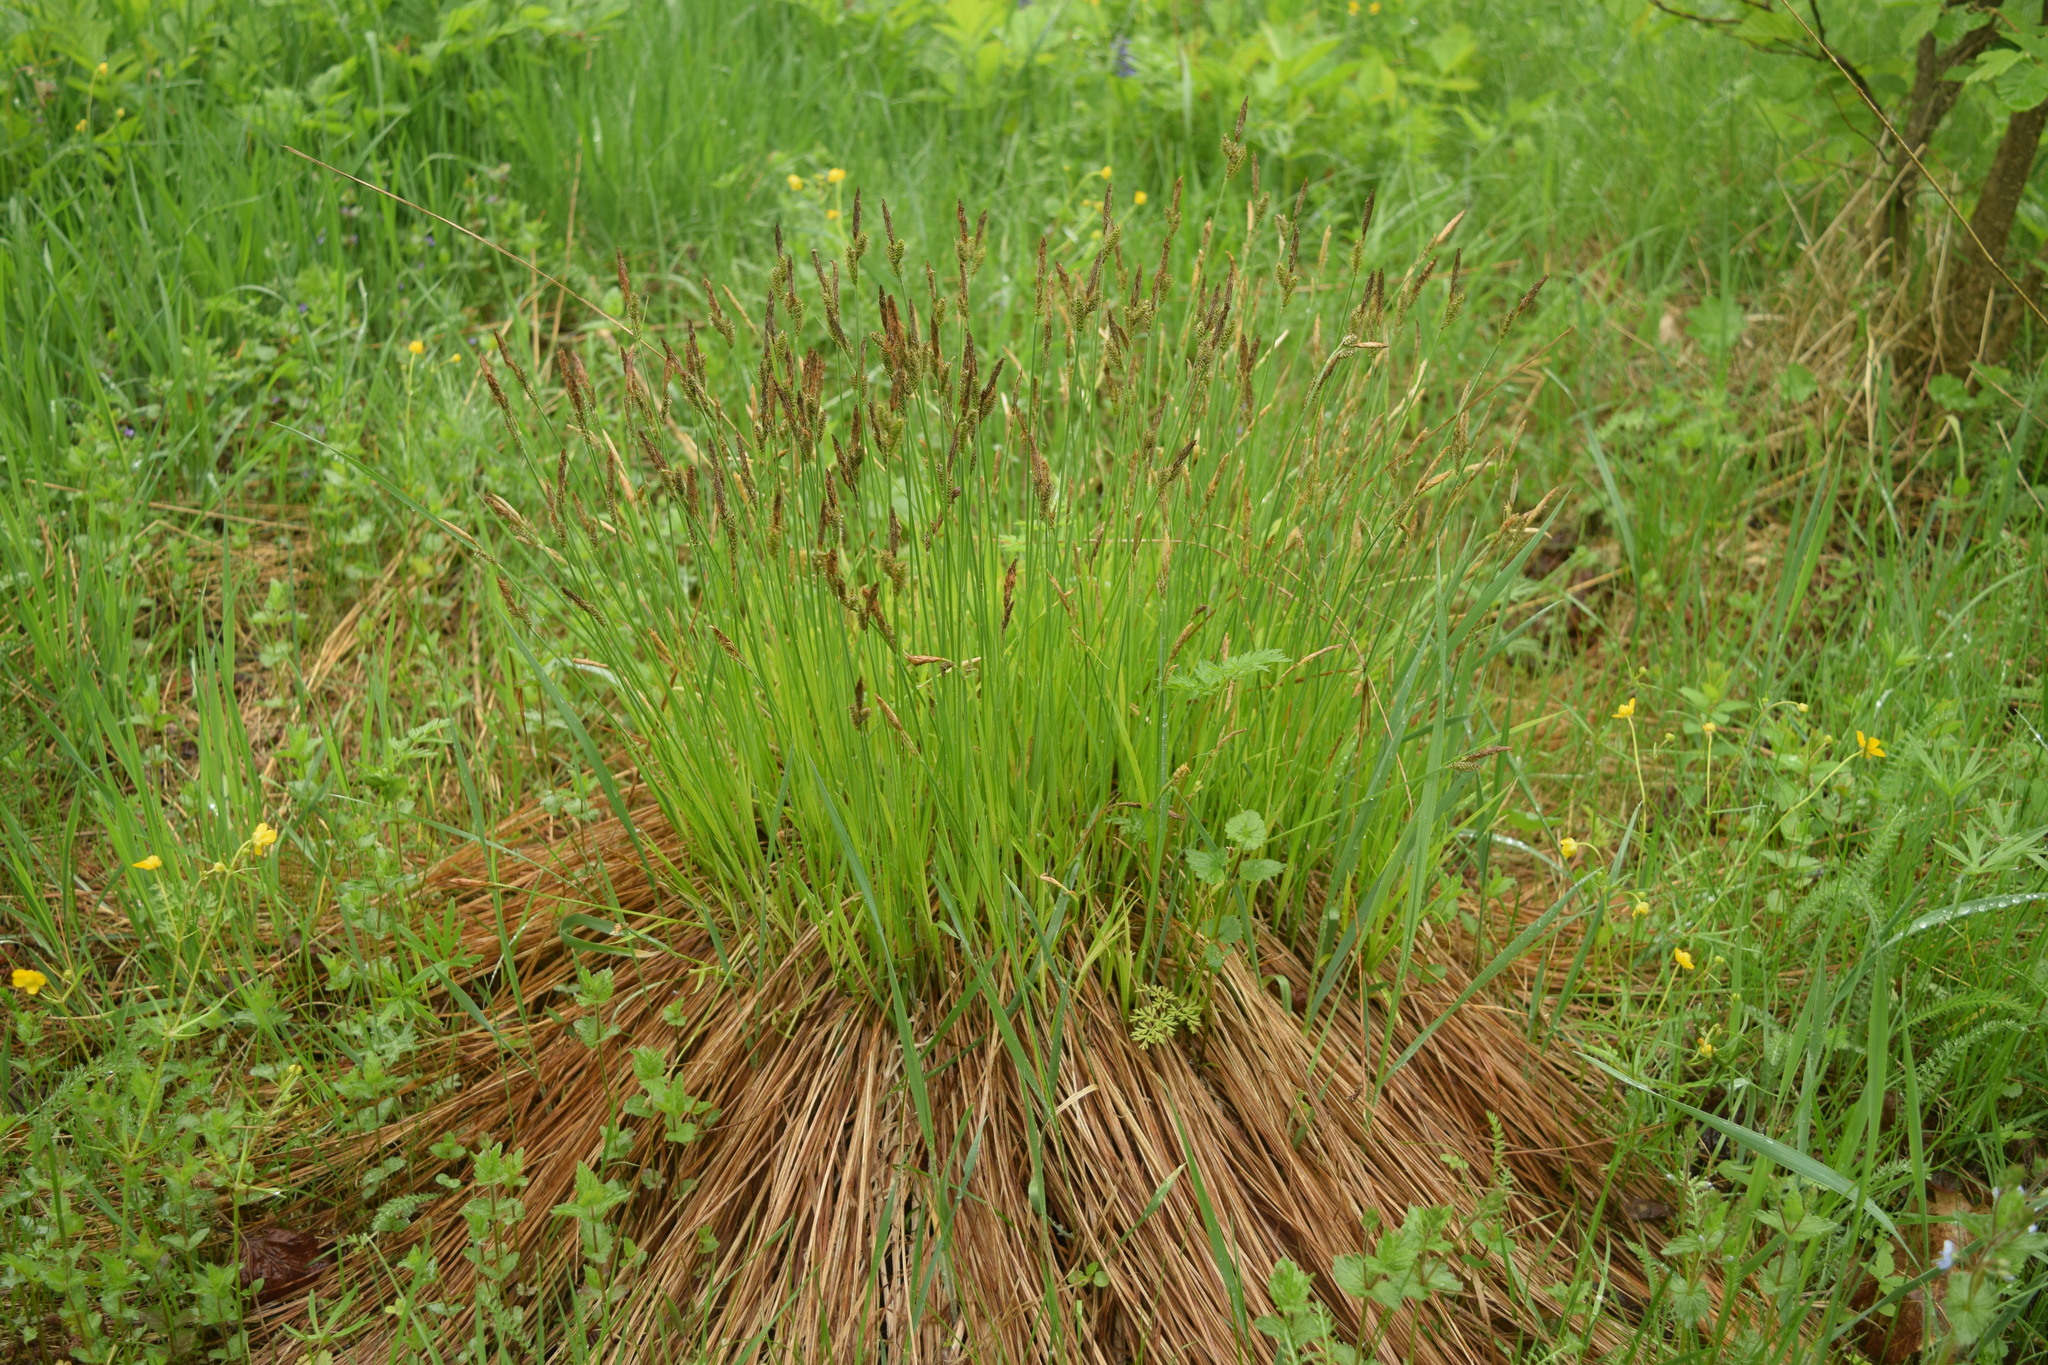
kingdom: Plantae
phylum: Tracheophyta
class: Liliopsida
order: Poales
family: Cyperaceae
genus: Carex
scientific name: Carex cespitosa
